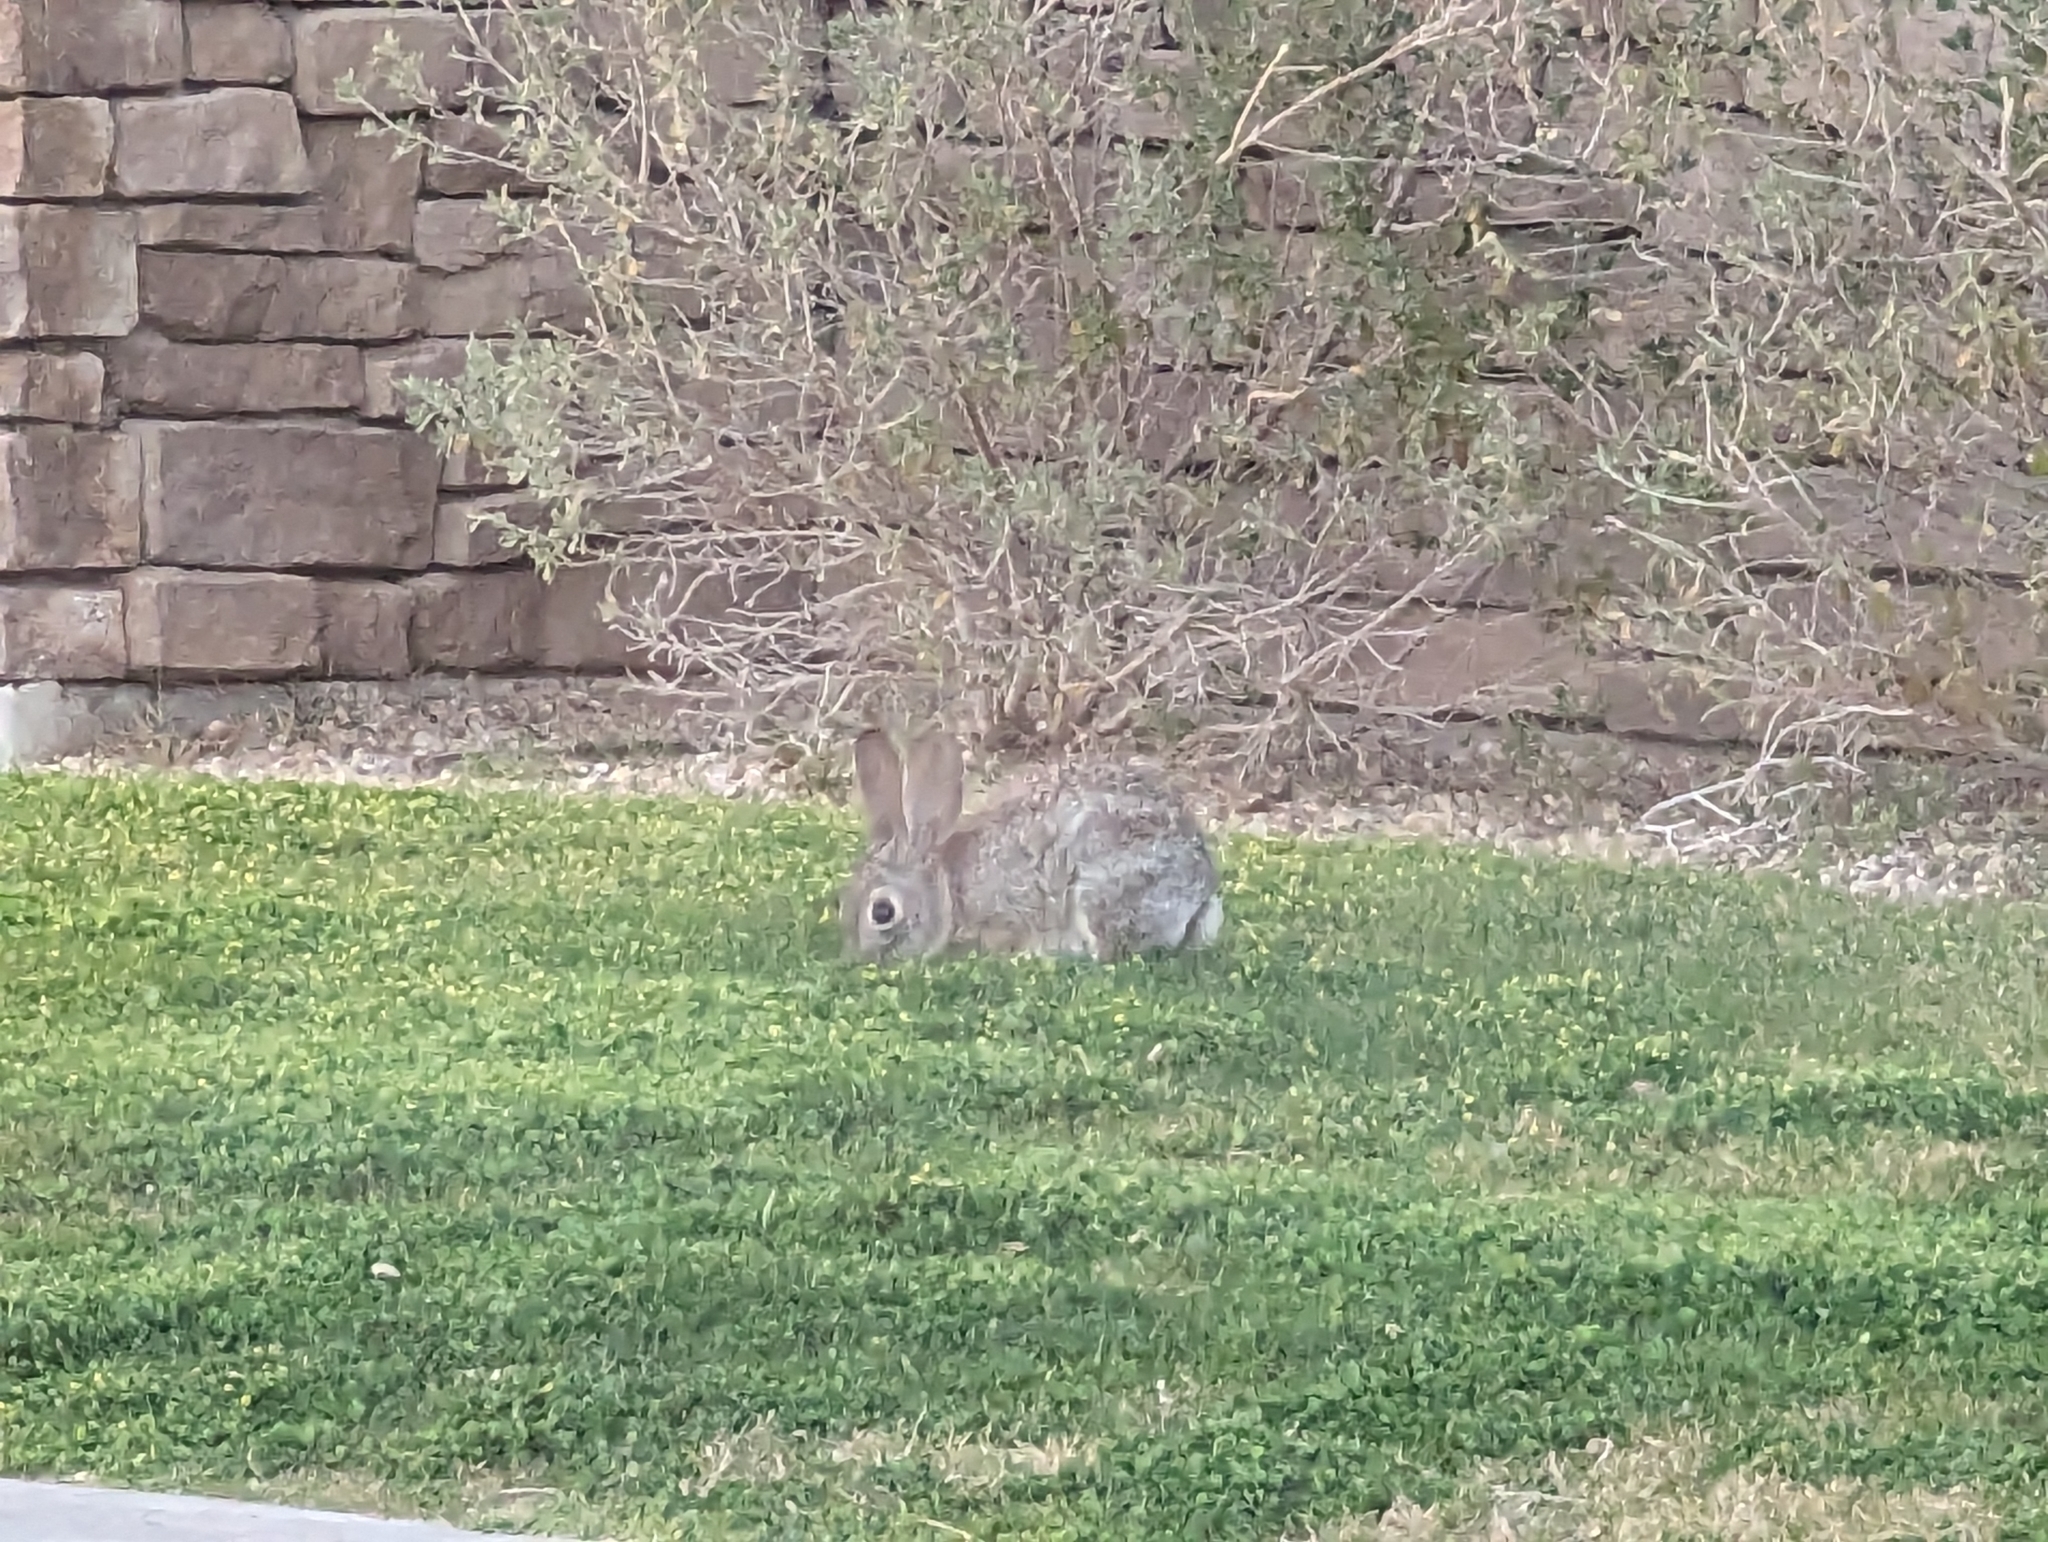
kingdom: Animalia
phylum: Chordata
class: Mammalia
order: Lagomorpha
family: Leporidae
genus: Sylvilagus
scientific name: Sylvilagus audubonii
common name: Desert cottontail
